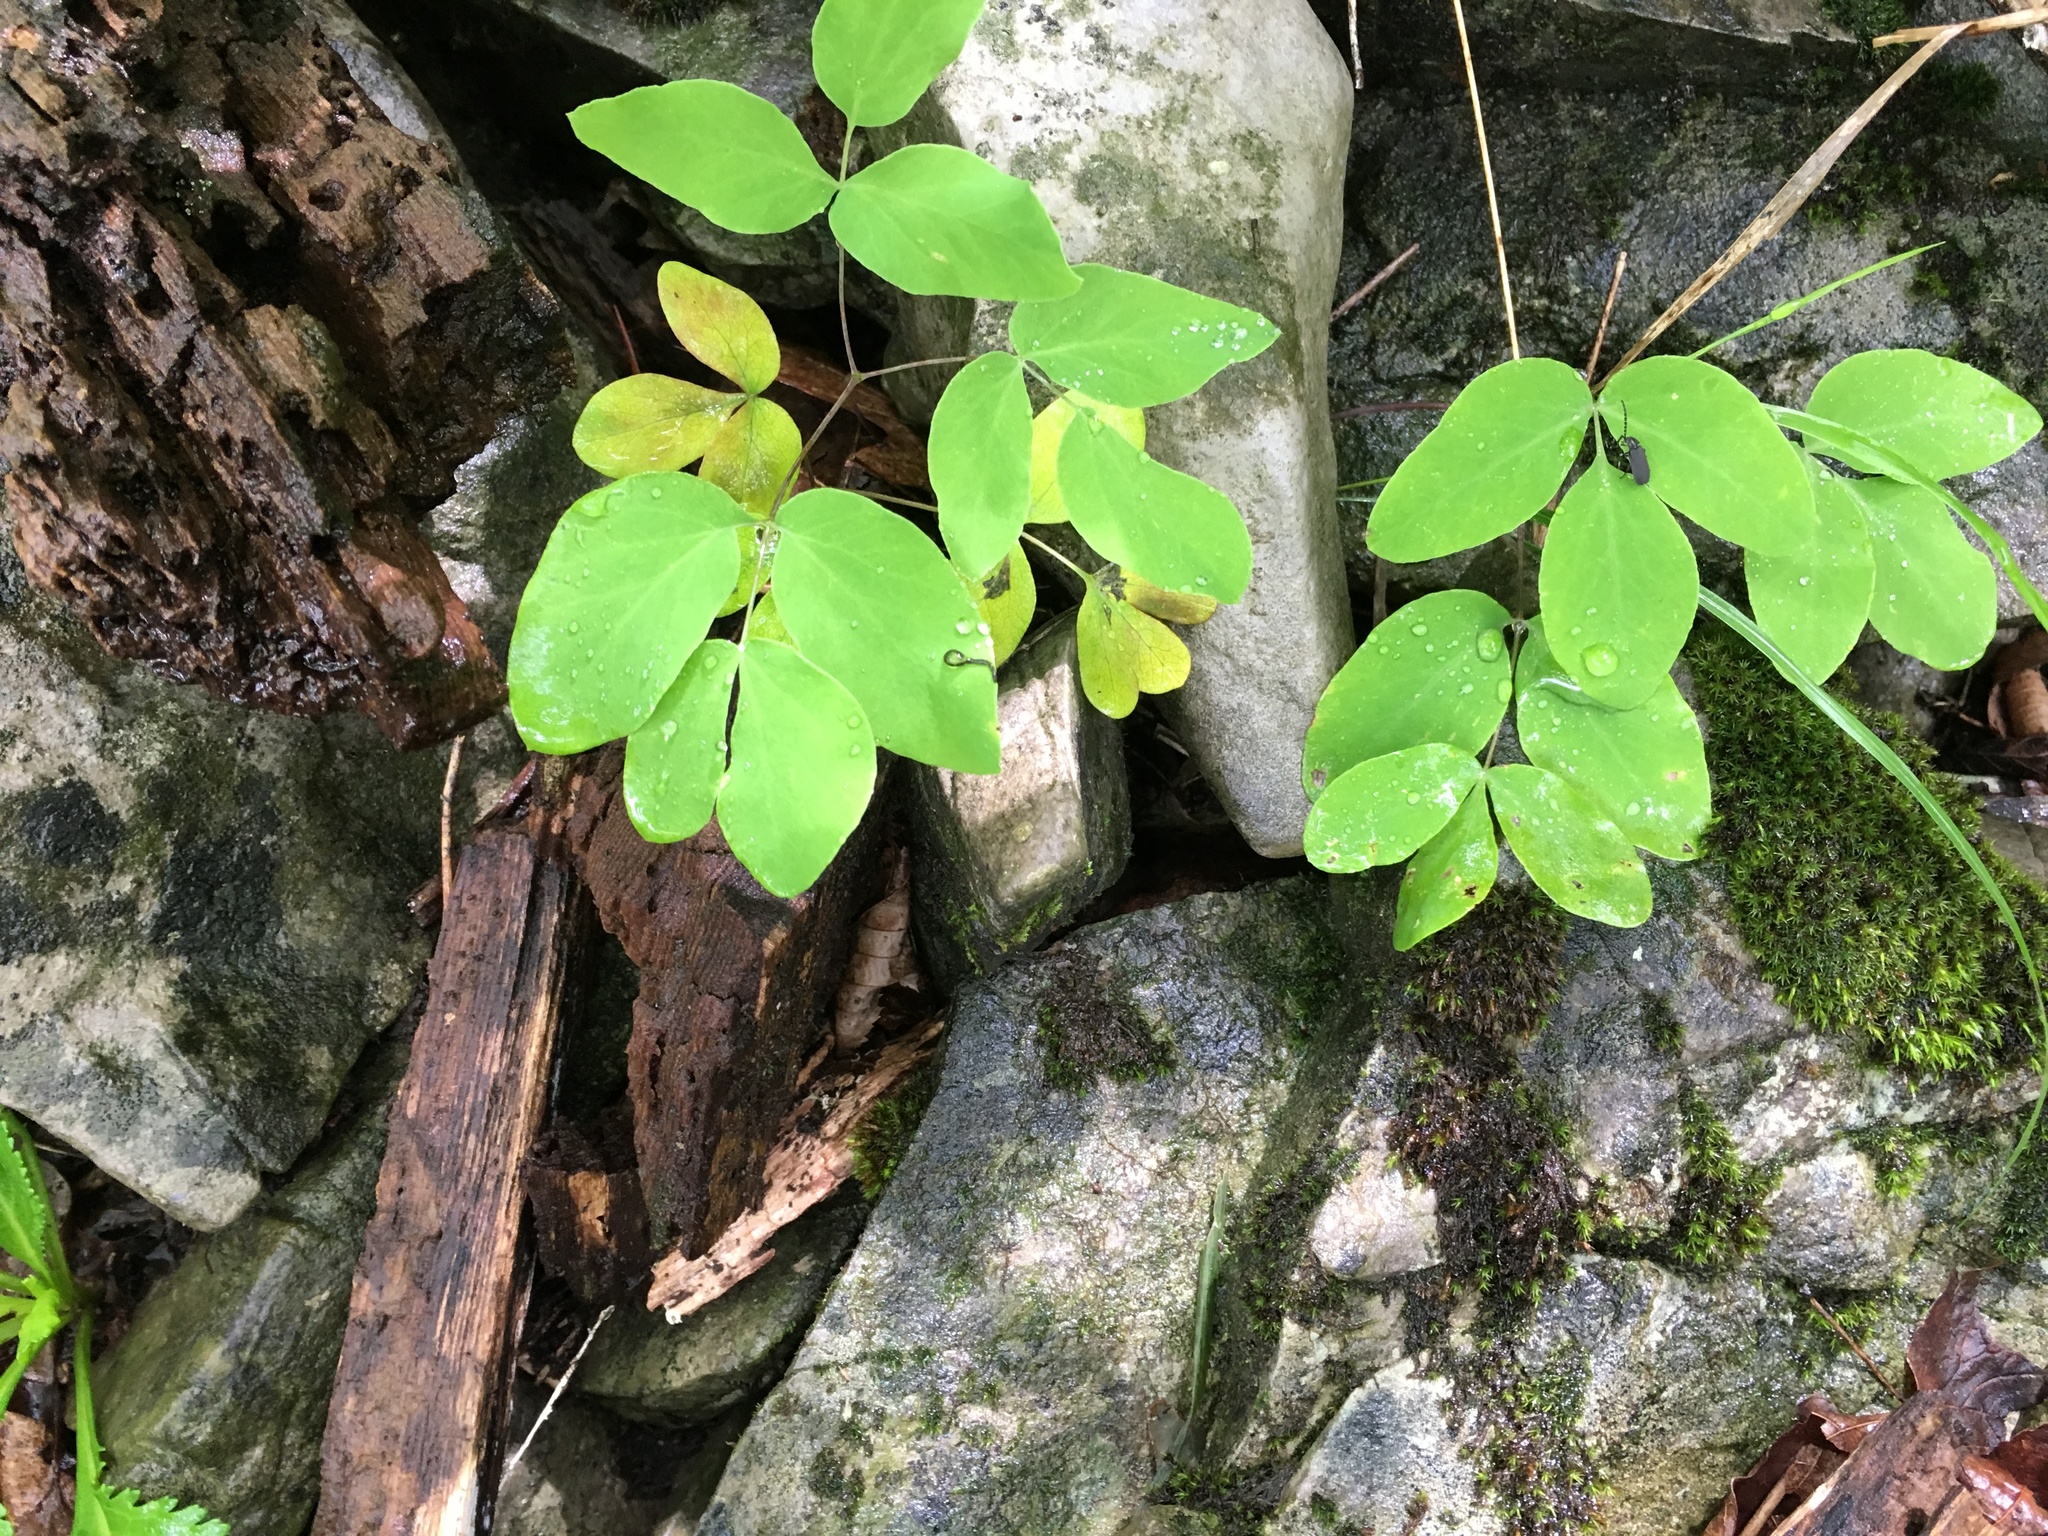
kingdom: Plantae
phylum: Tracheophyta
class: Magnoliopsida
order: Apiales
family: Apiaceae
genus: Taenidia
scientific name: Taenidia integerrima
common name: Golden alexander
